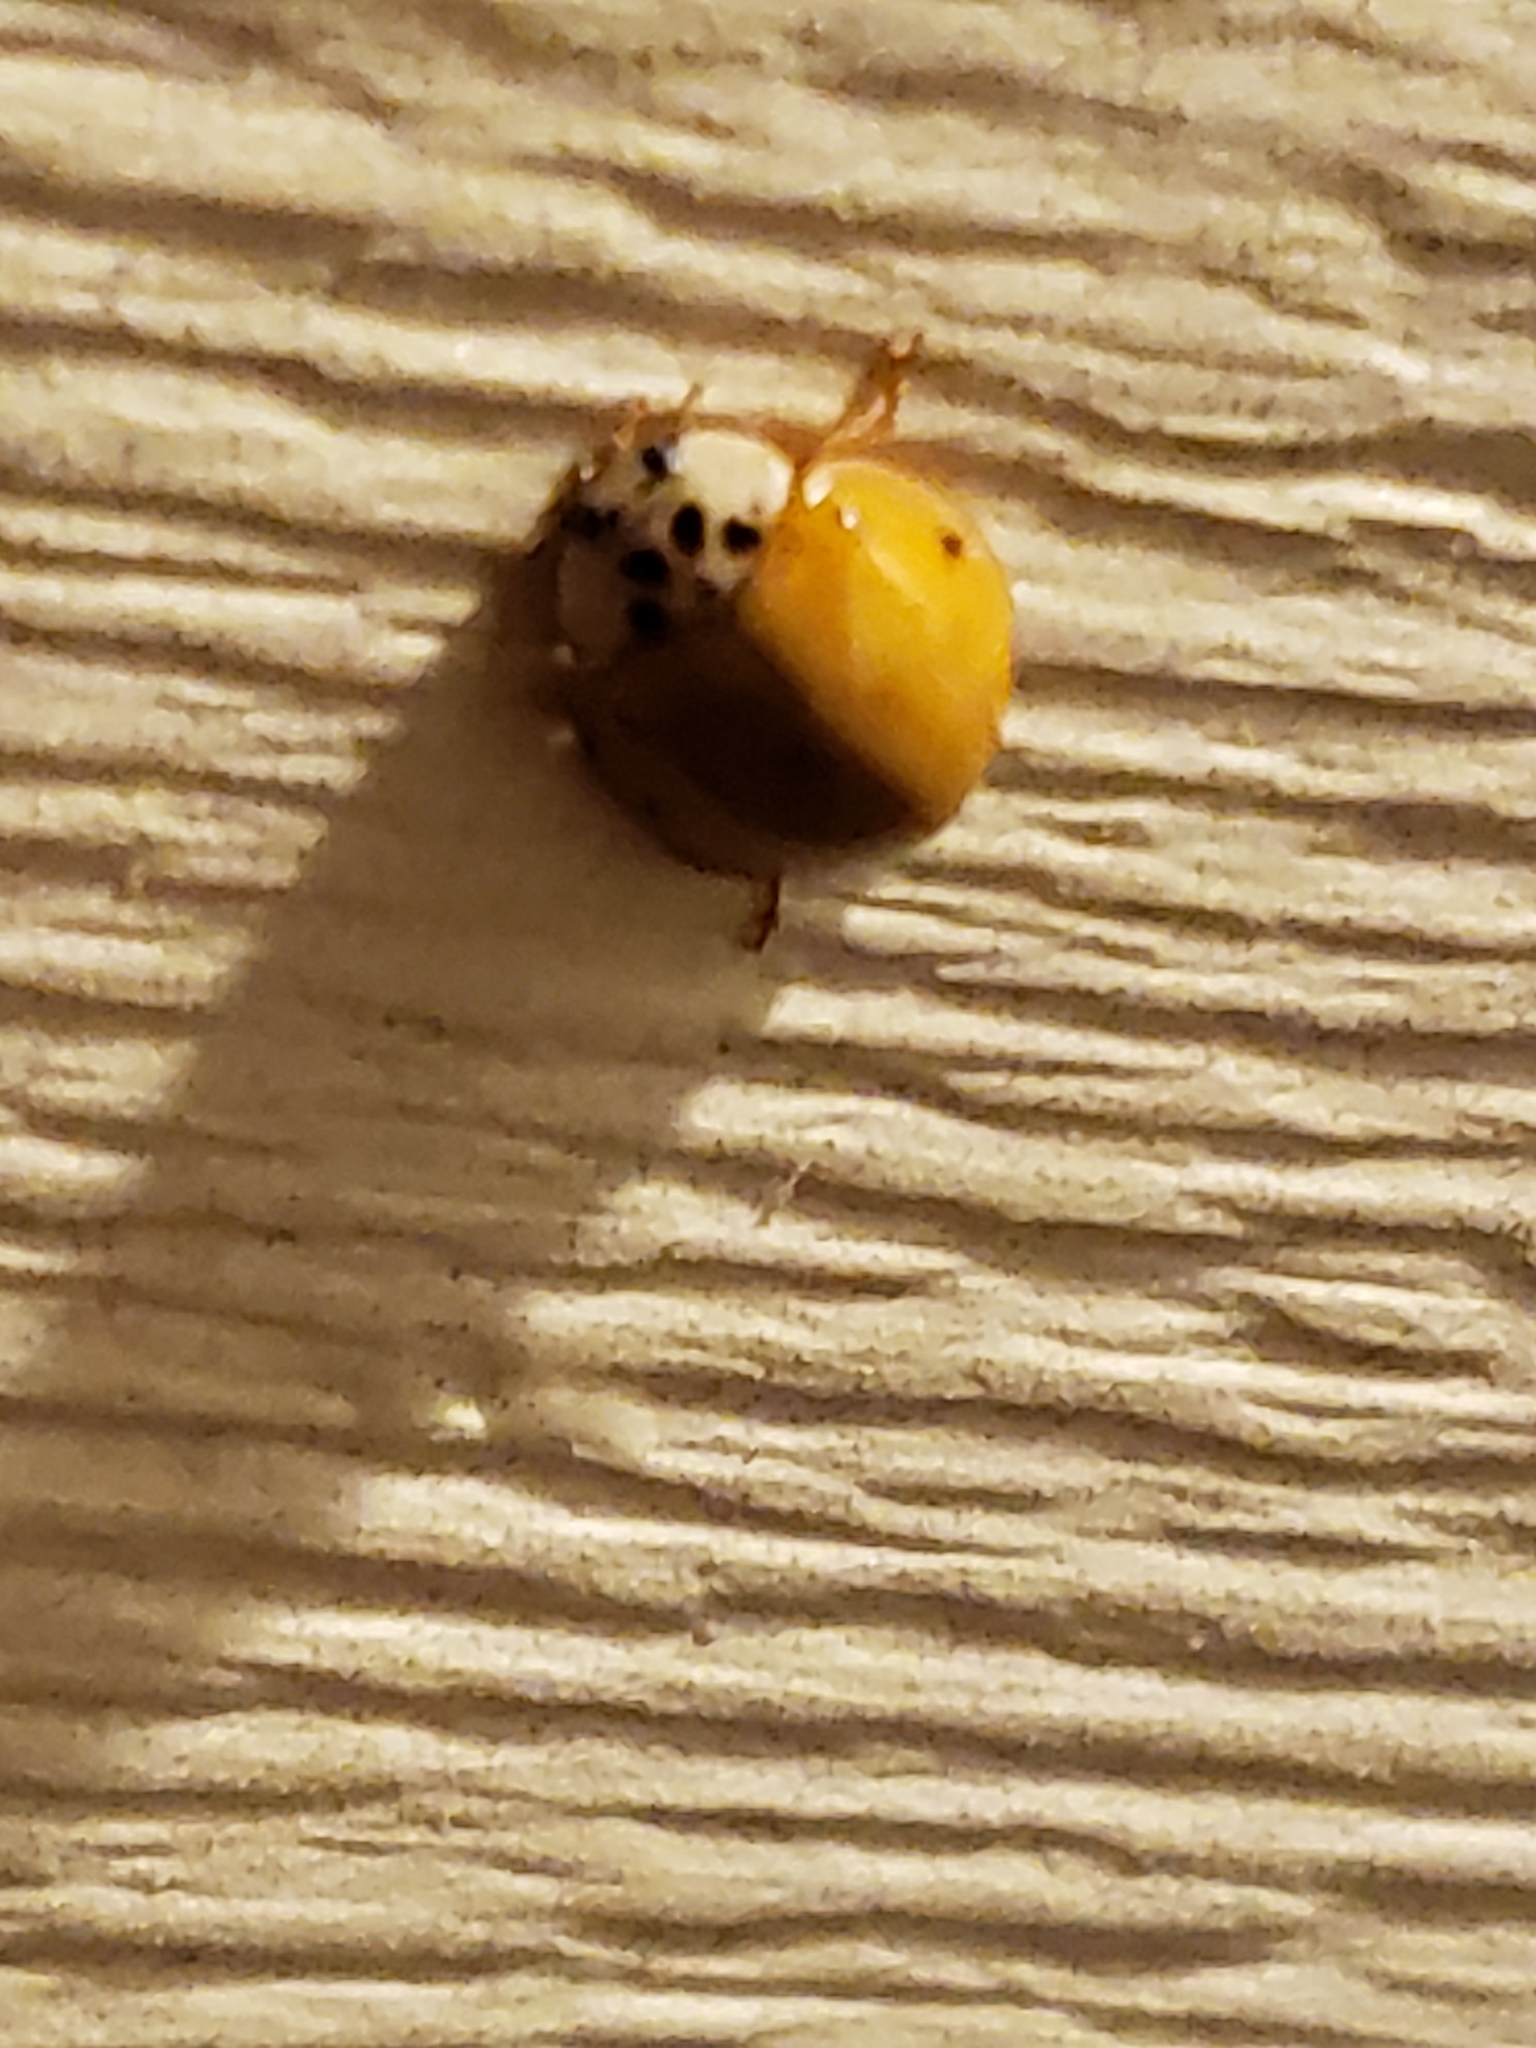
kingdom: Animalia
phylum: Arthropoda
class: Insecta
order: Coleoptera
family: Coccinellidae
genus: Harmonia
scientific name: Harmonia axyridis
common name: Harlequin ladybird
